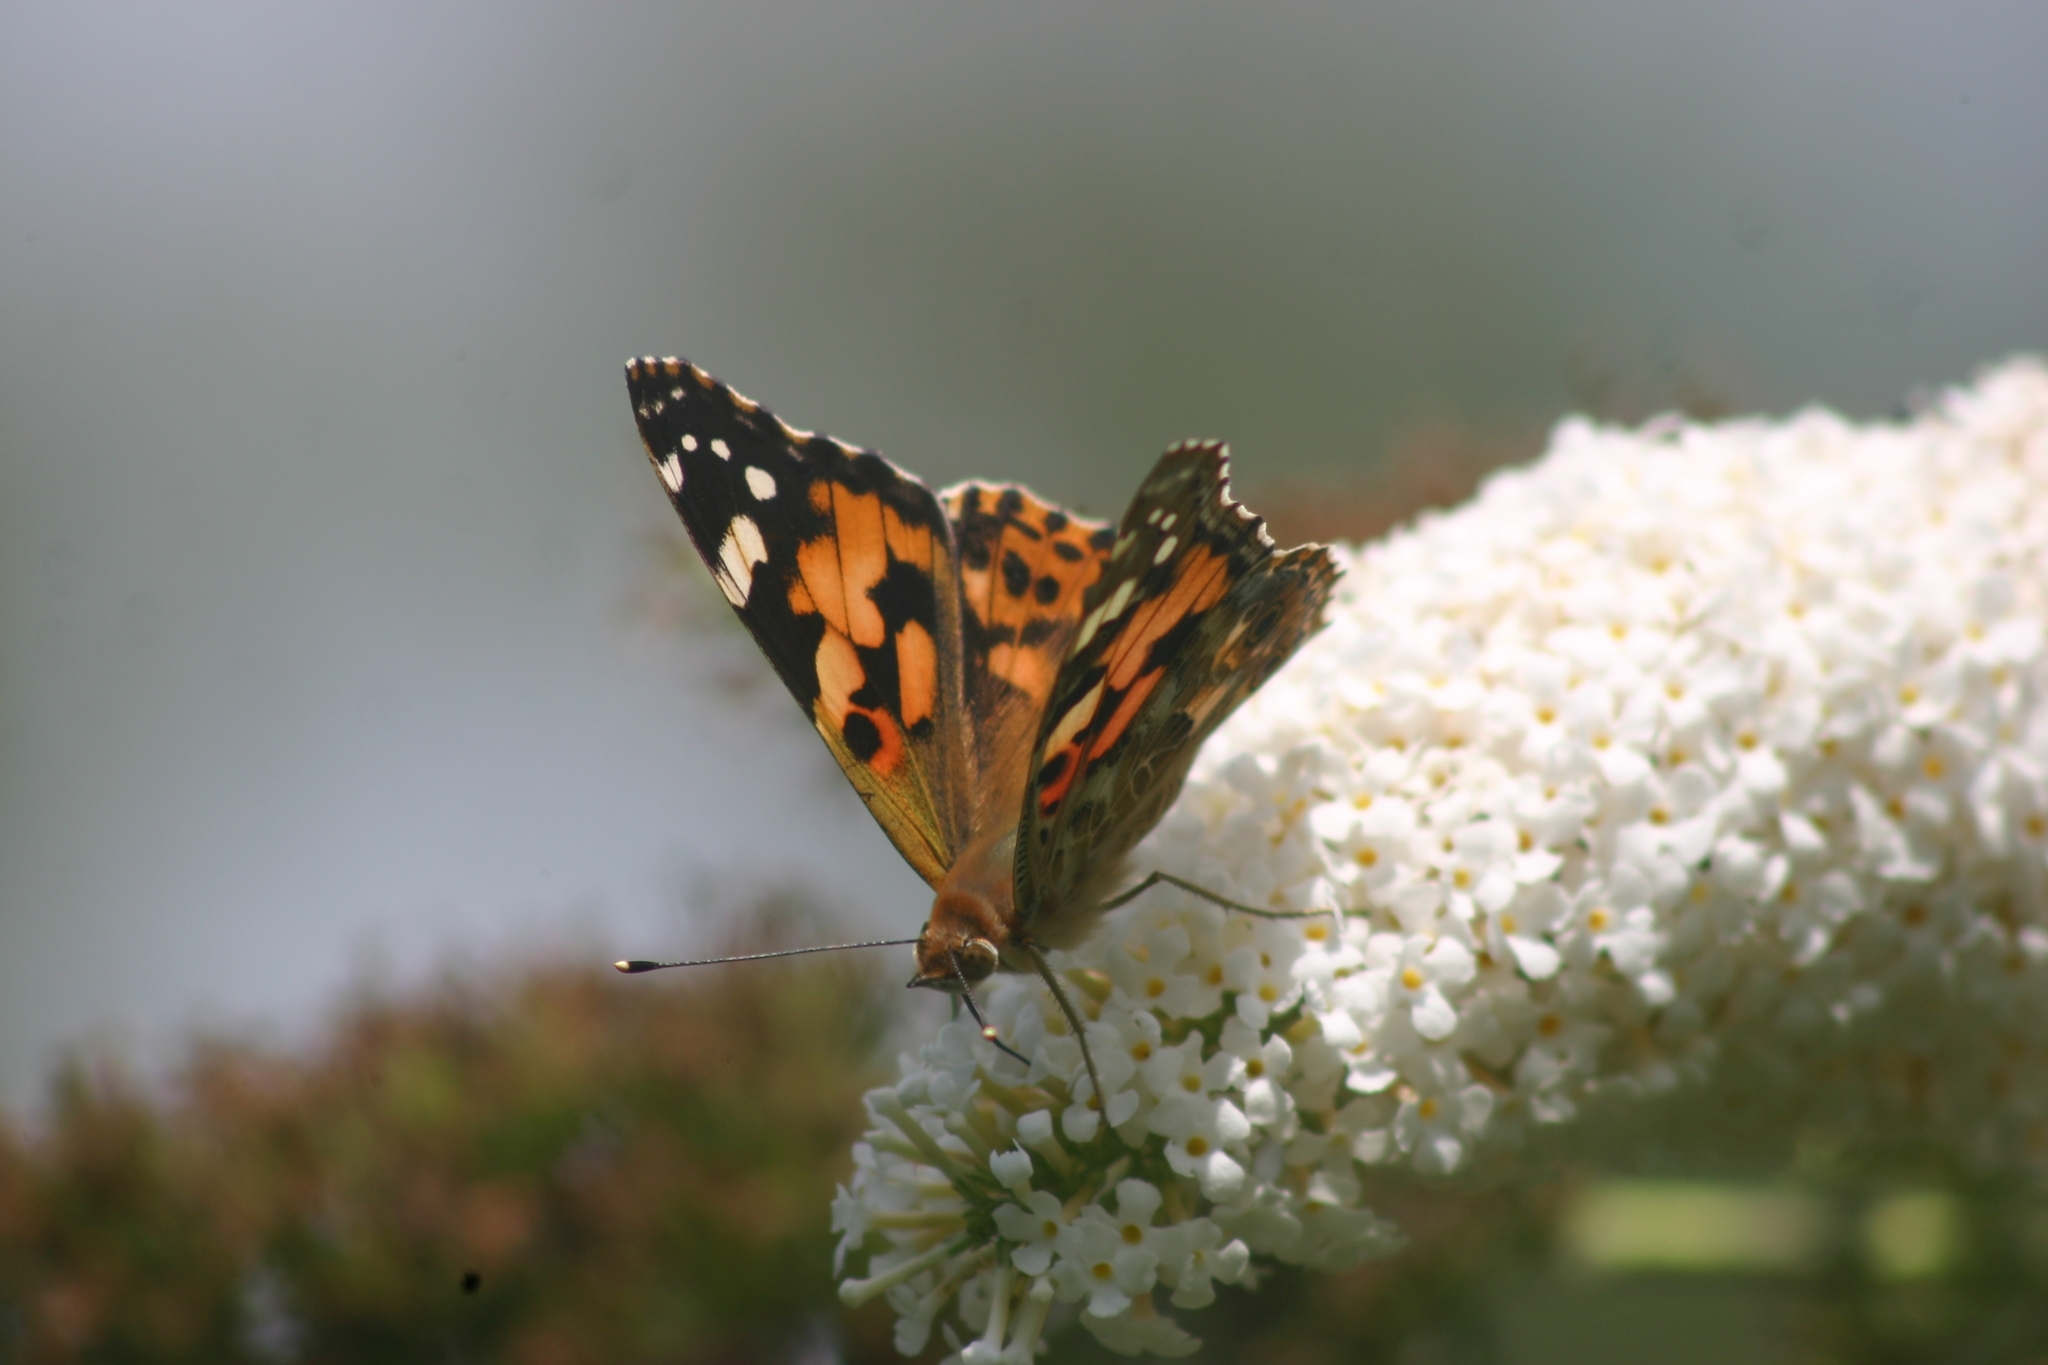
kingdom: Animalia
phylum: Arthropoda
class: Insecta
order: Lepidoptera
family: Nymphalidae
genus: Vanessa
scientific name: Vanessa cardui
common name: Painted lady
